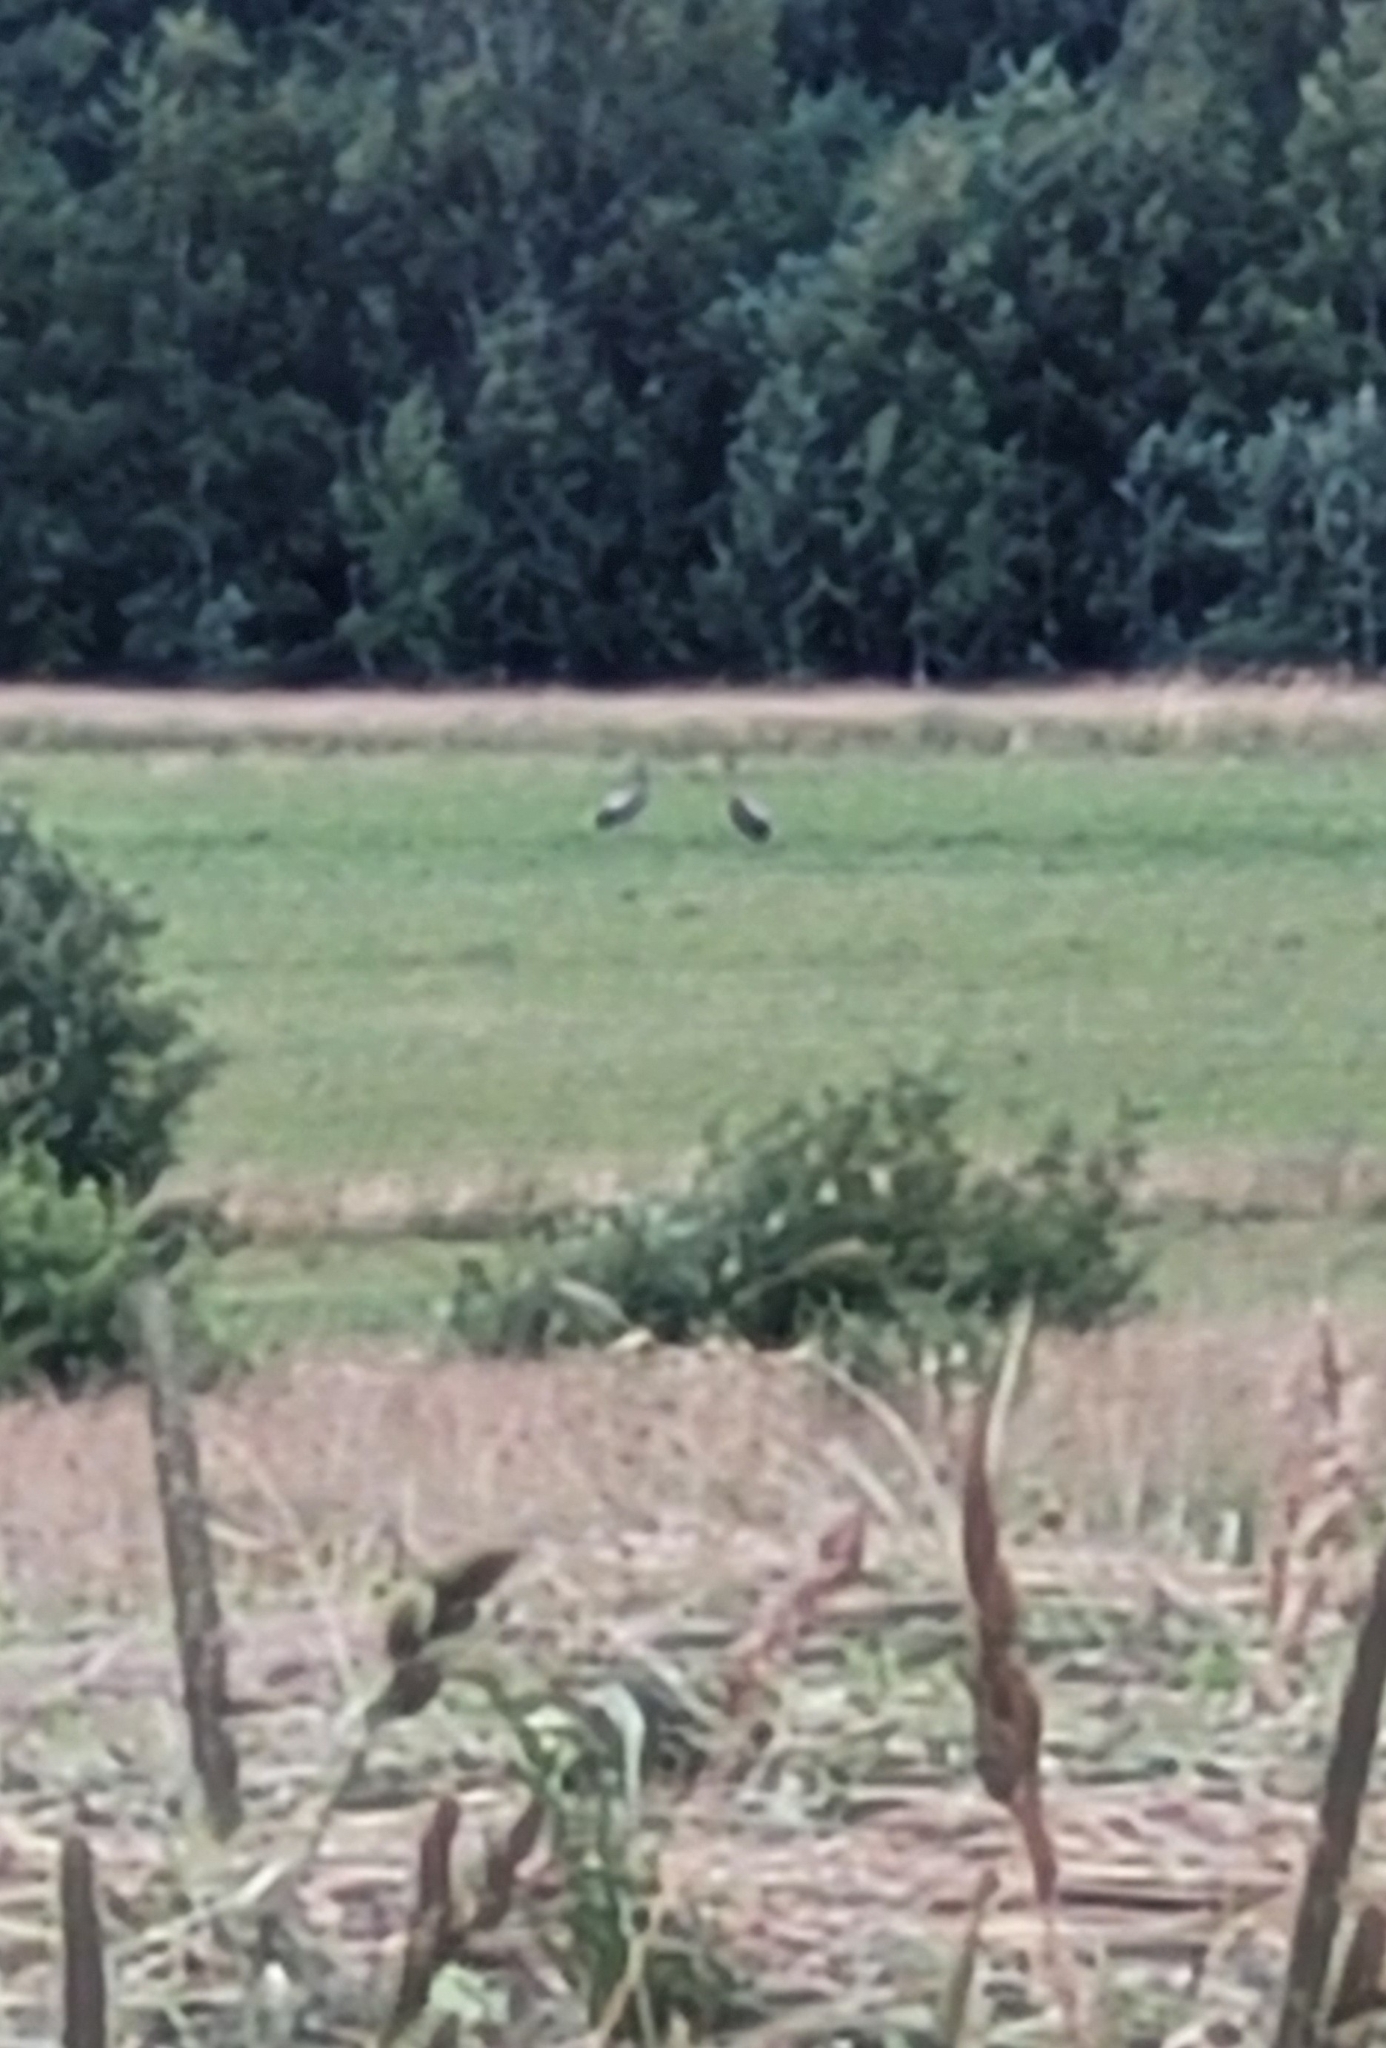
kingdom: Animalia
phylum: Chordata
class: Aves
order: Gruiformes
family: Gruidae
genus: Grus
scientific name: Grus grus
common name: Common crane
